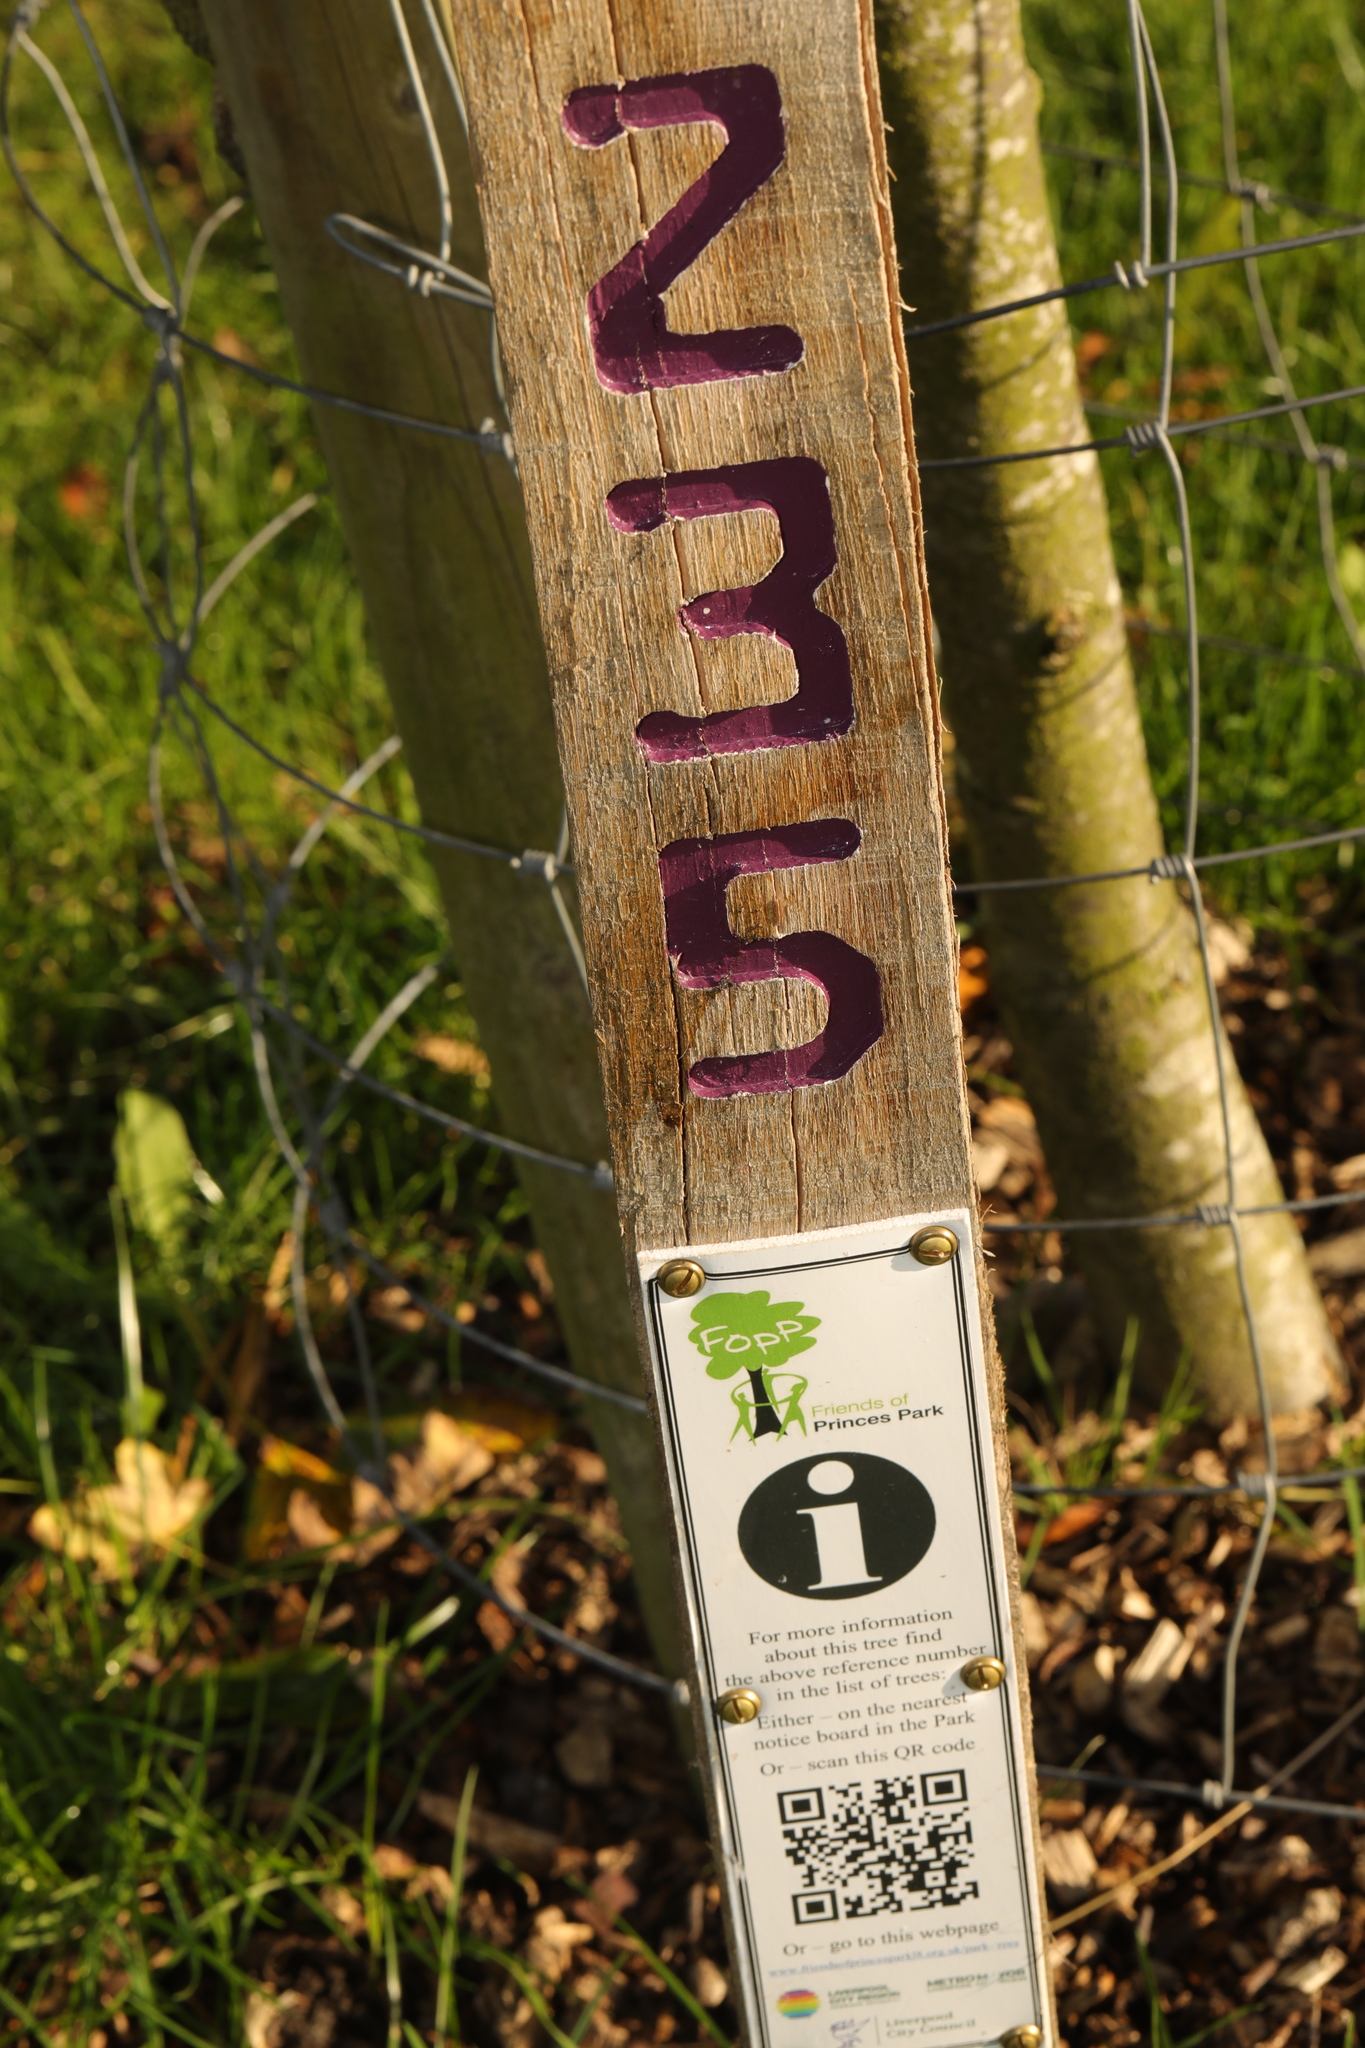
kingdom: Plantae
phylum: Tracheophyta
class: Magnoliopsida
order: Rosales
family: Rosaceae
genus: Torminalis
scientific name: Torminalis glaberrima
